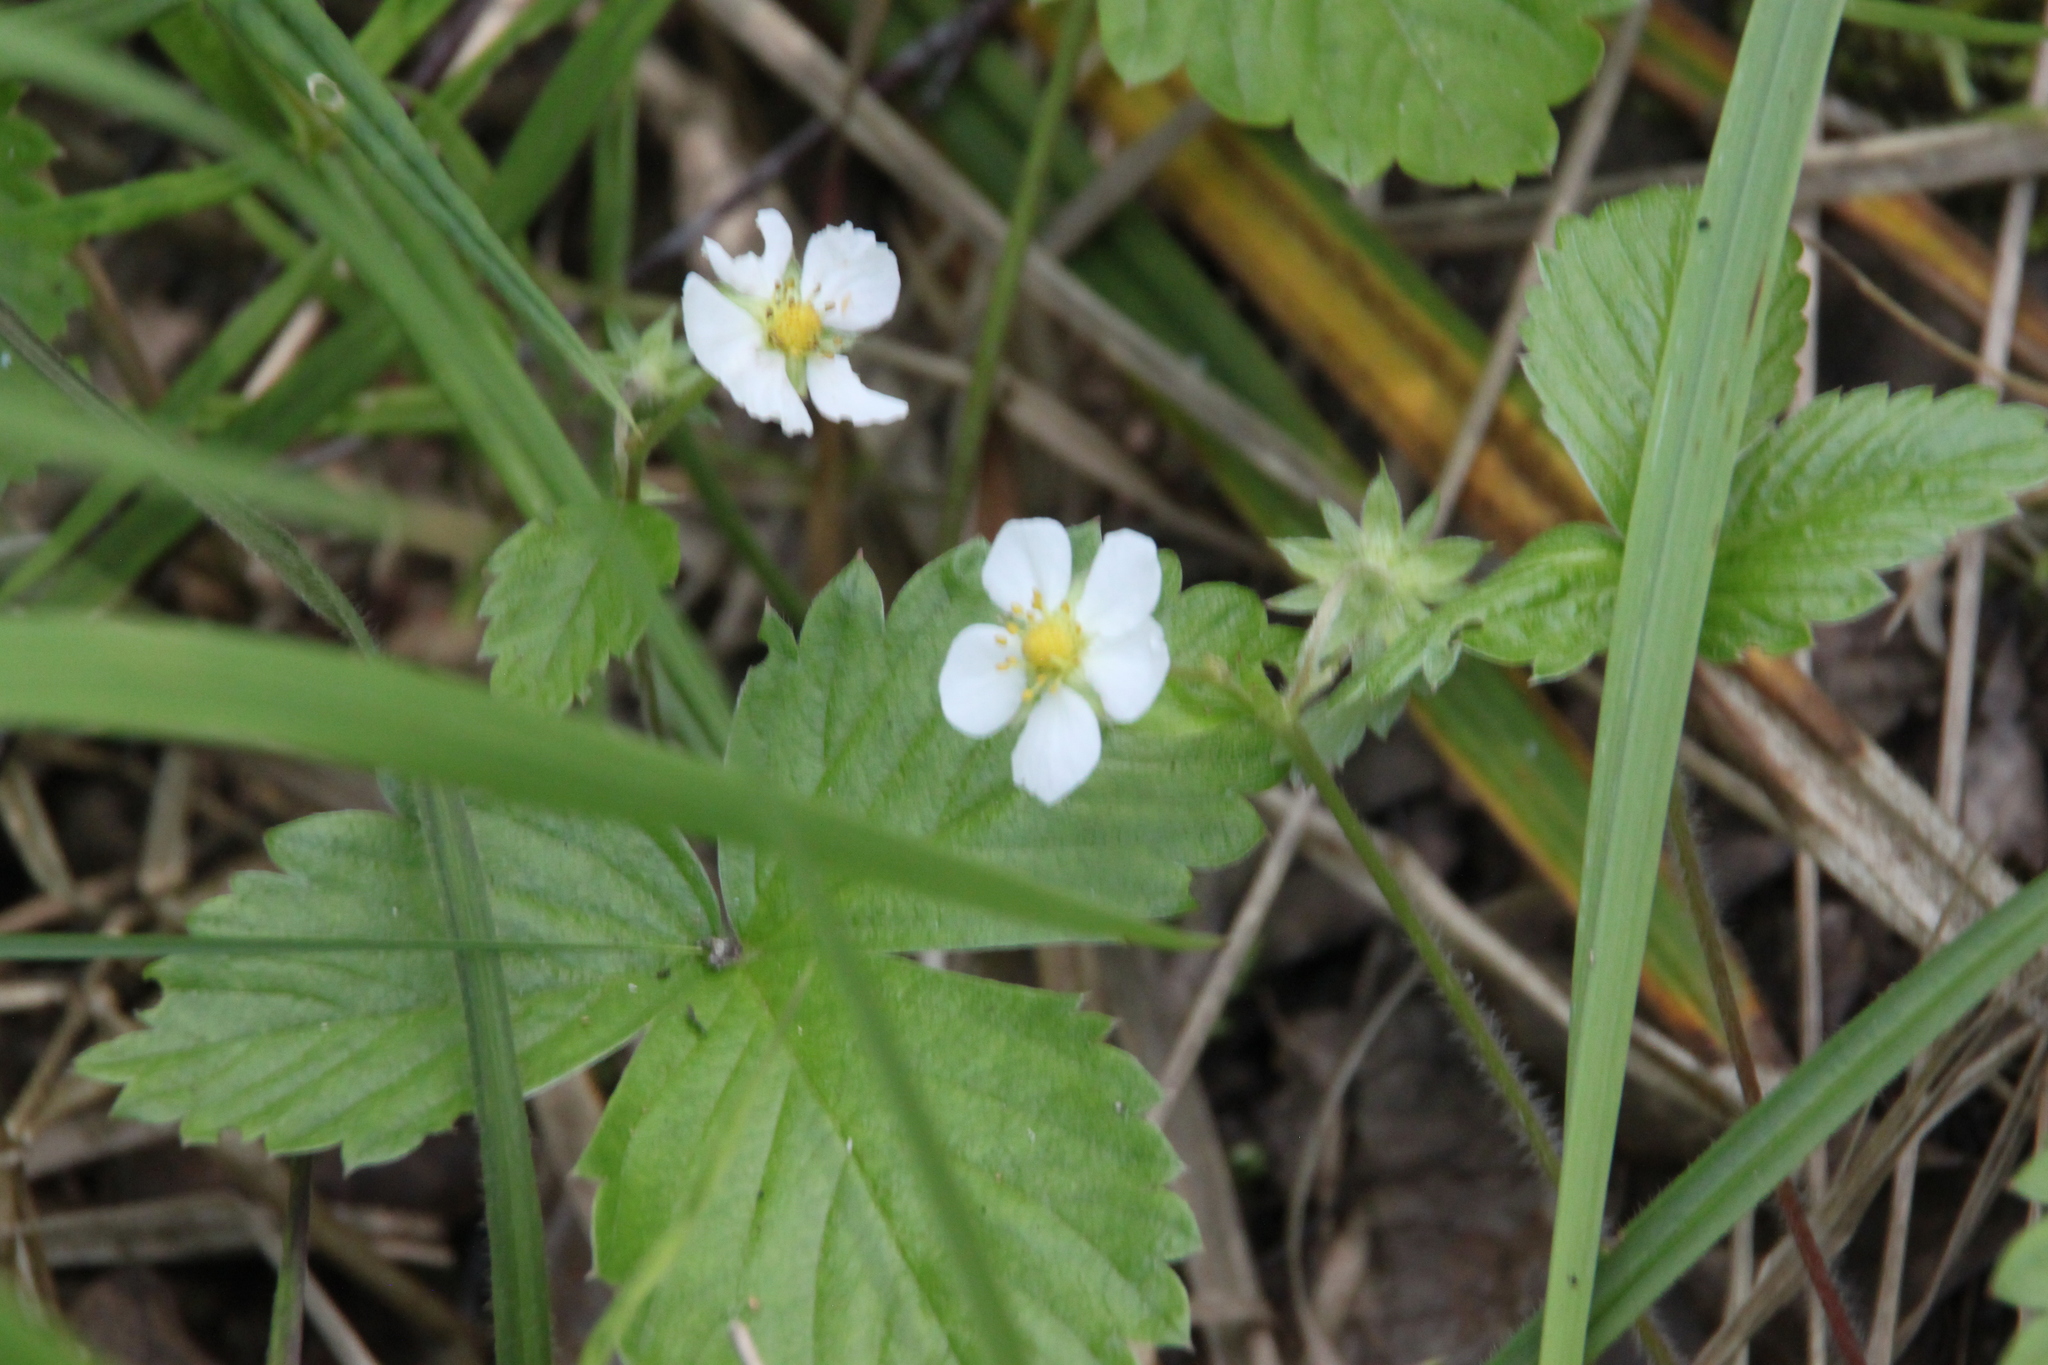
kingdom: Plantae
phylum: Tracheophyta
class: Magnoliopsida
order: Rosales
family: Rosaceae
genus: Fragaria
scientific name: Fragaria vesca
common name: Wild strawberry
